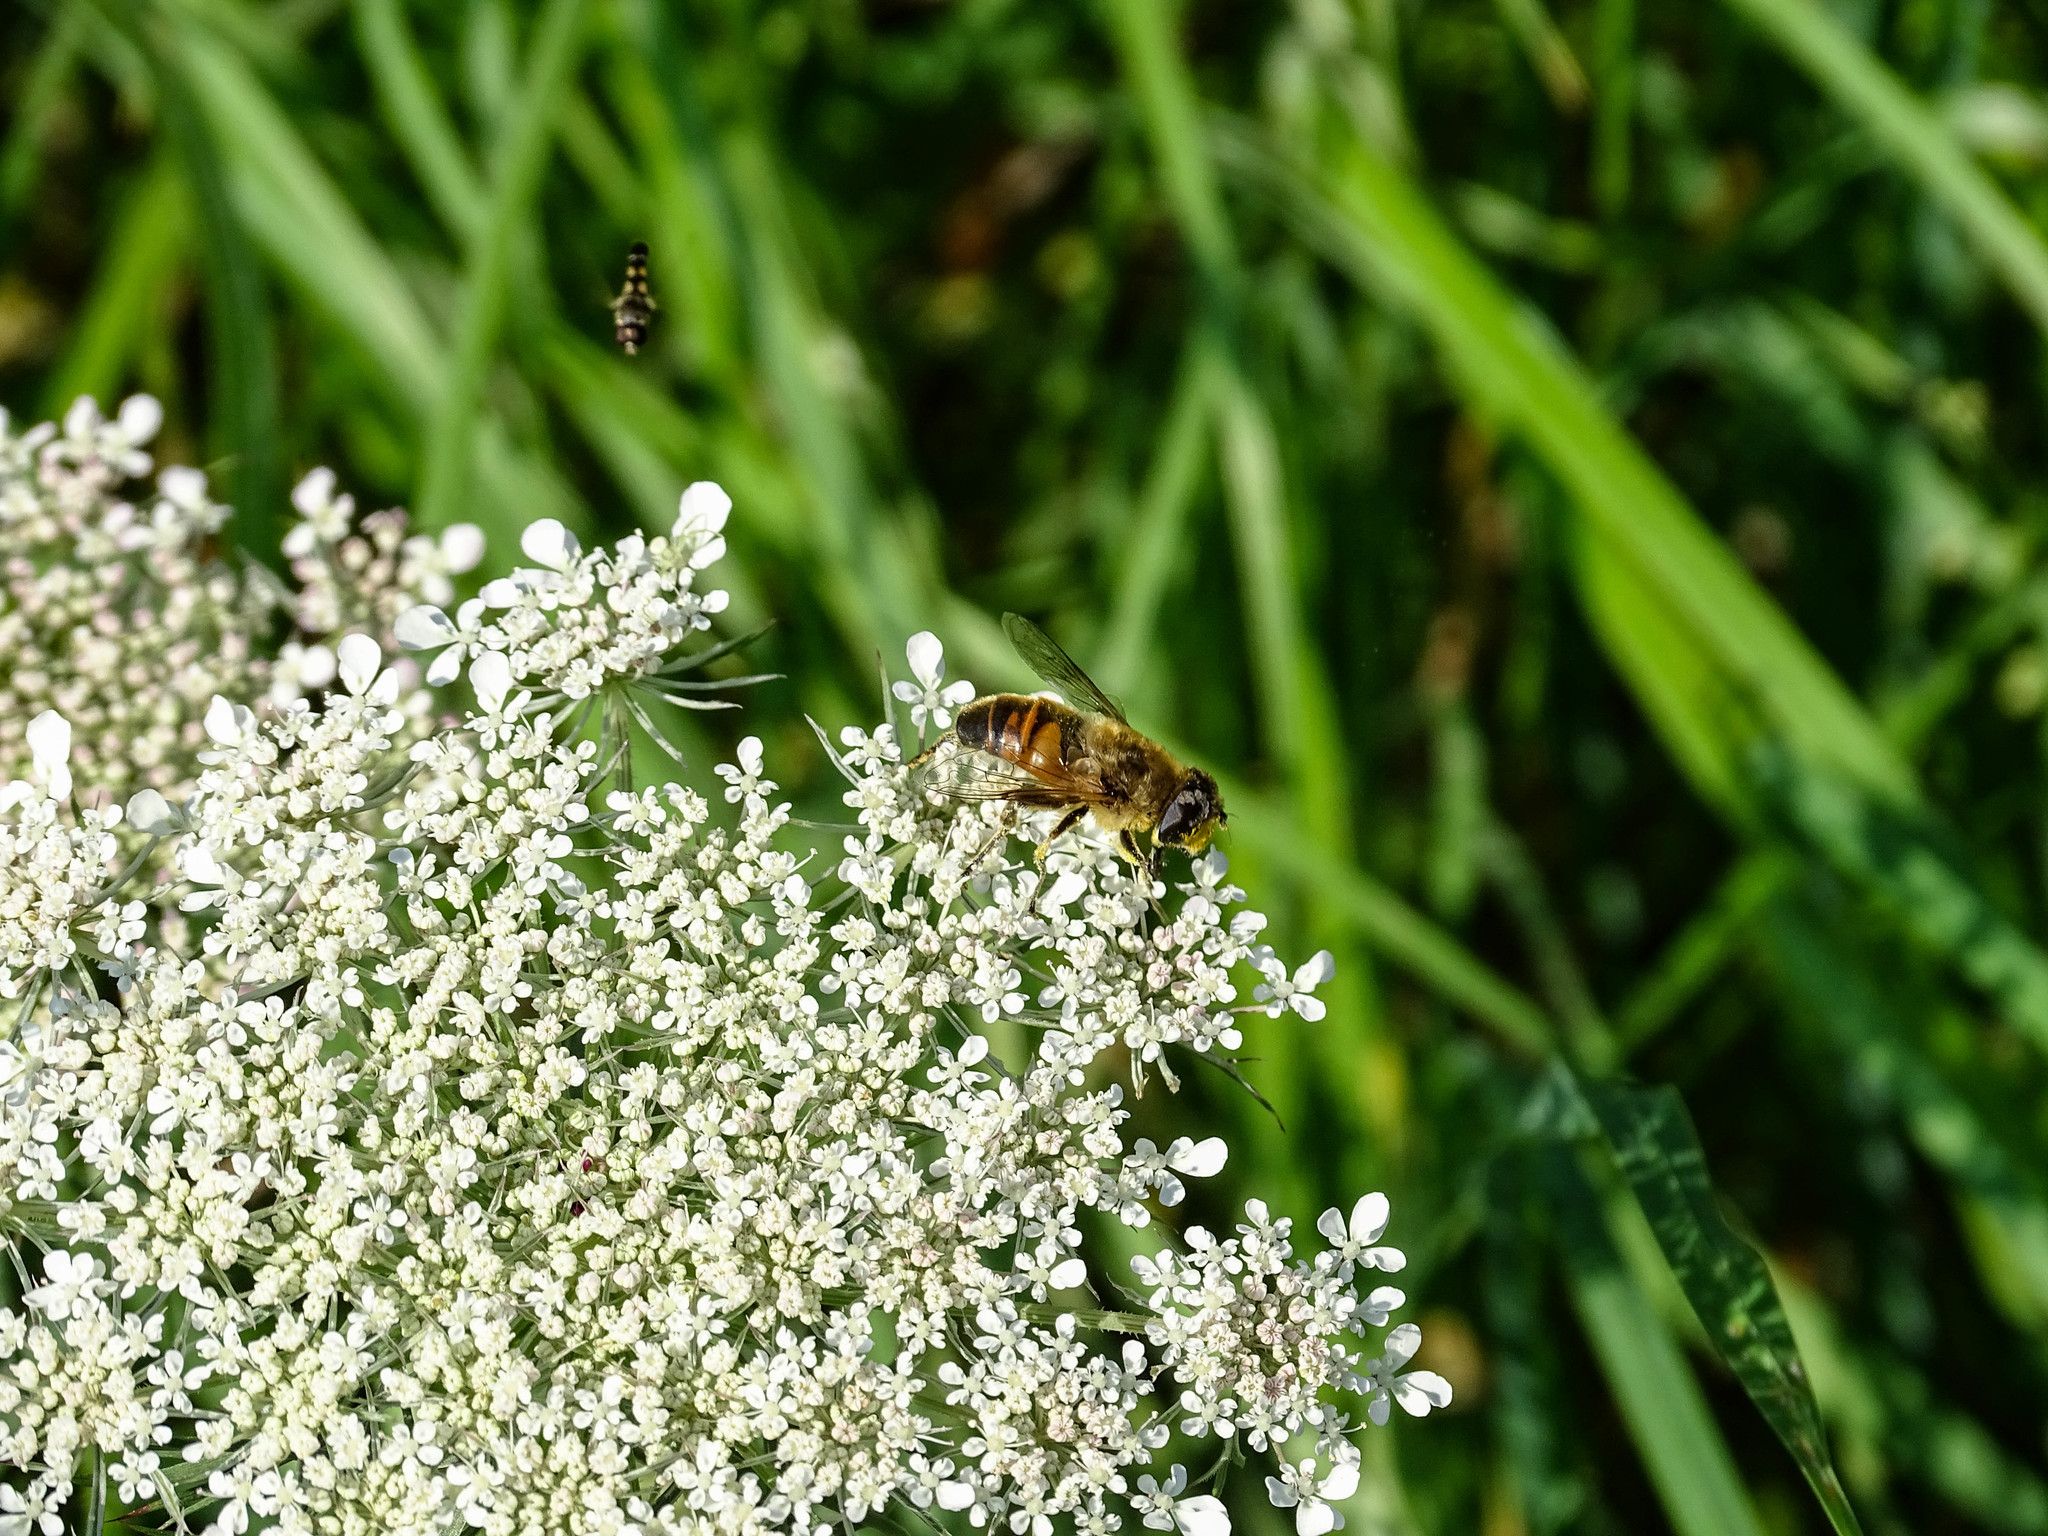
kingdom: Animalia
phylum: Arthropoda
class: Insecta
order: Diptera
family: Syrphidae
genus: Eristalis
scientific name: Eristalis tenax
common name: Drone fly
